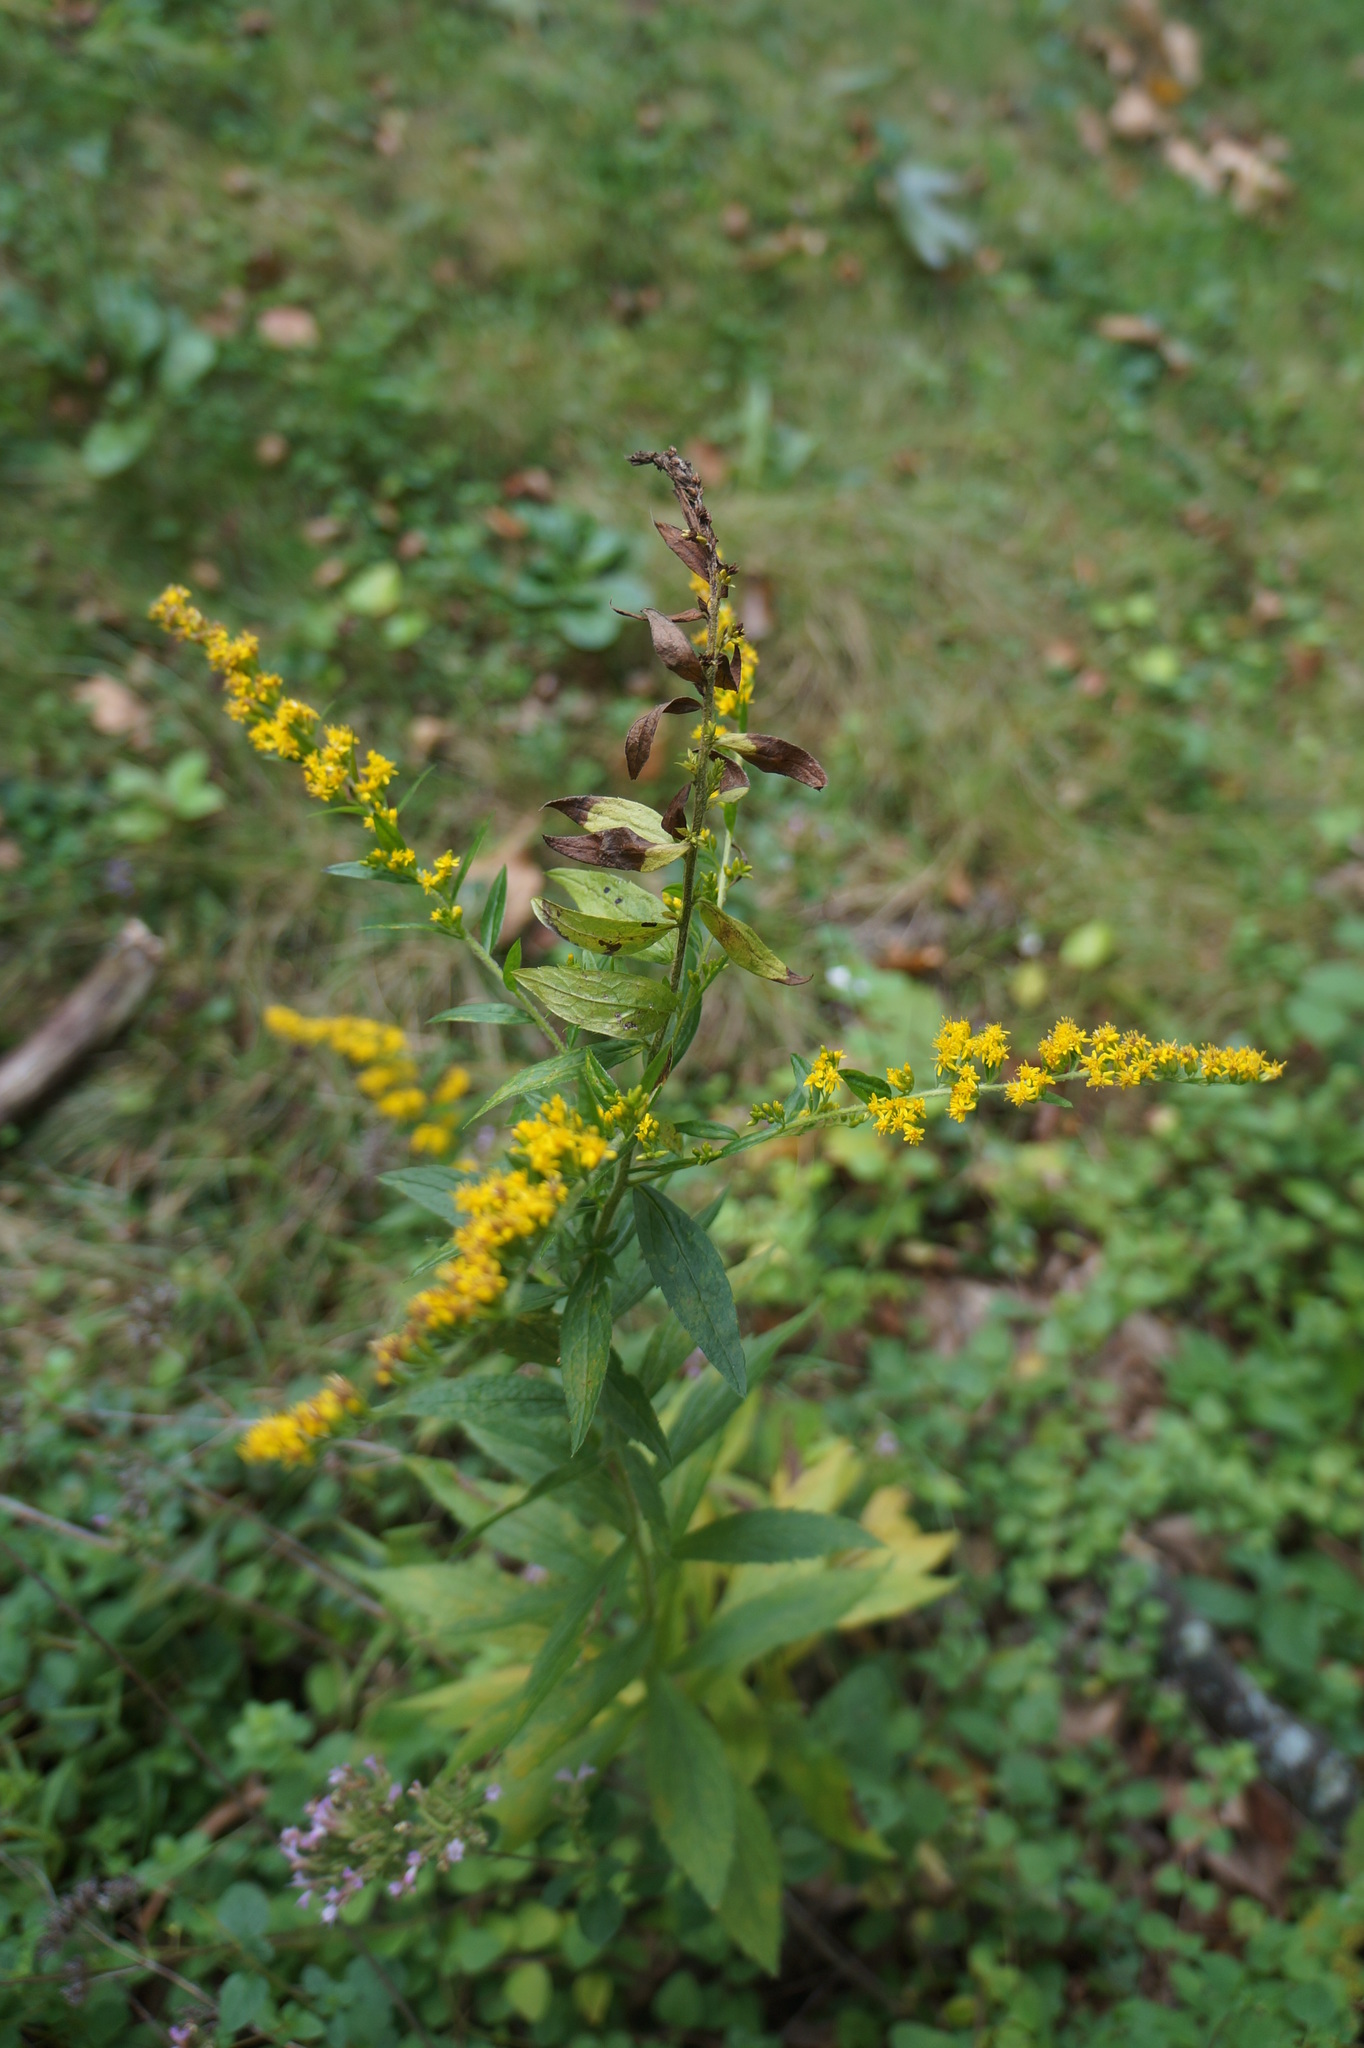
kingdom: Plantae
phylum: Tracheophyta
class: Magnoliopsida
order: Asterales
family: Asteraceae
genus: Solidago
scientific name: Solidago rugosa
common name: Rough-stemmed goldenrod
